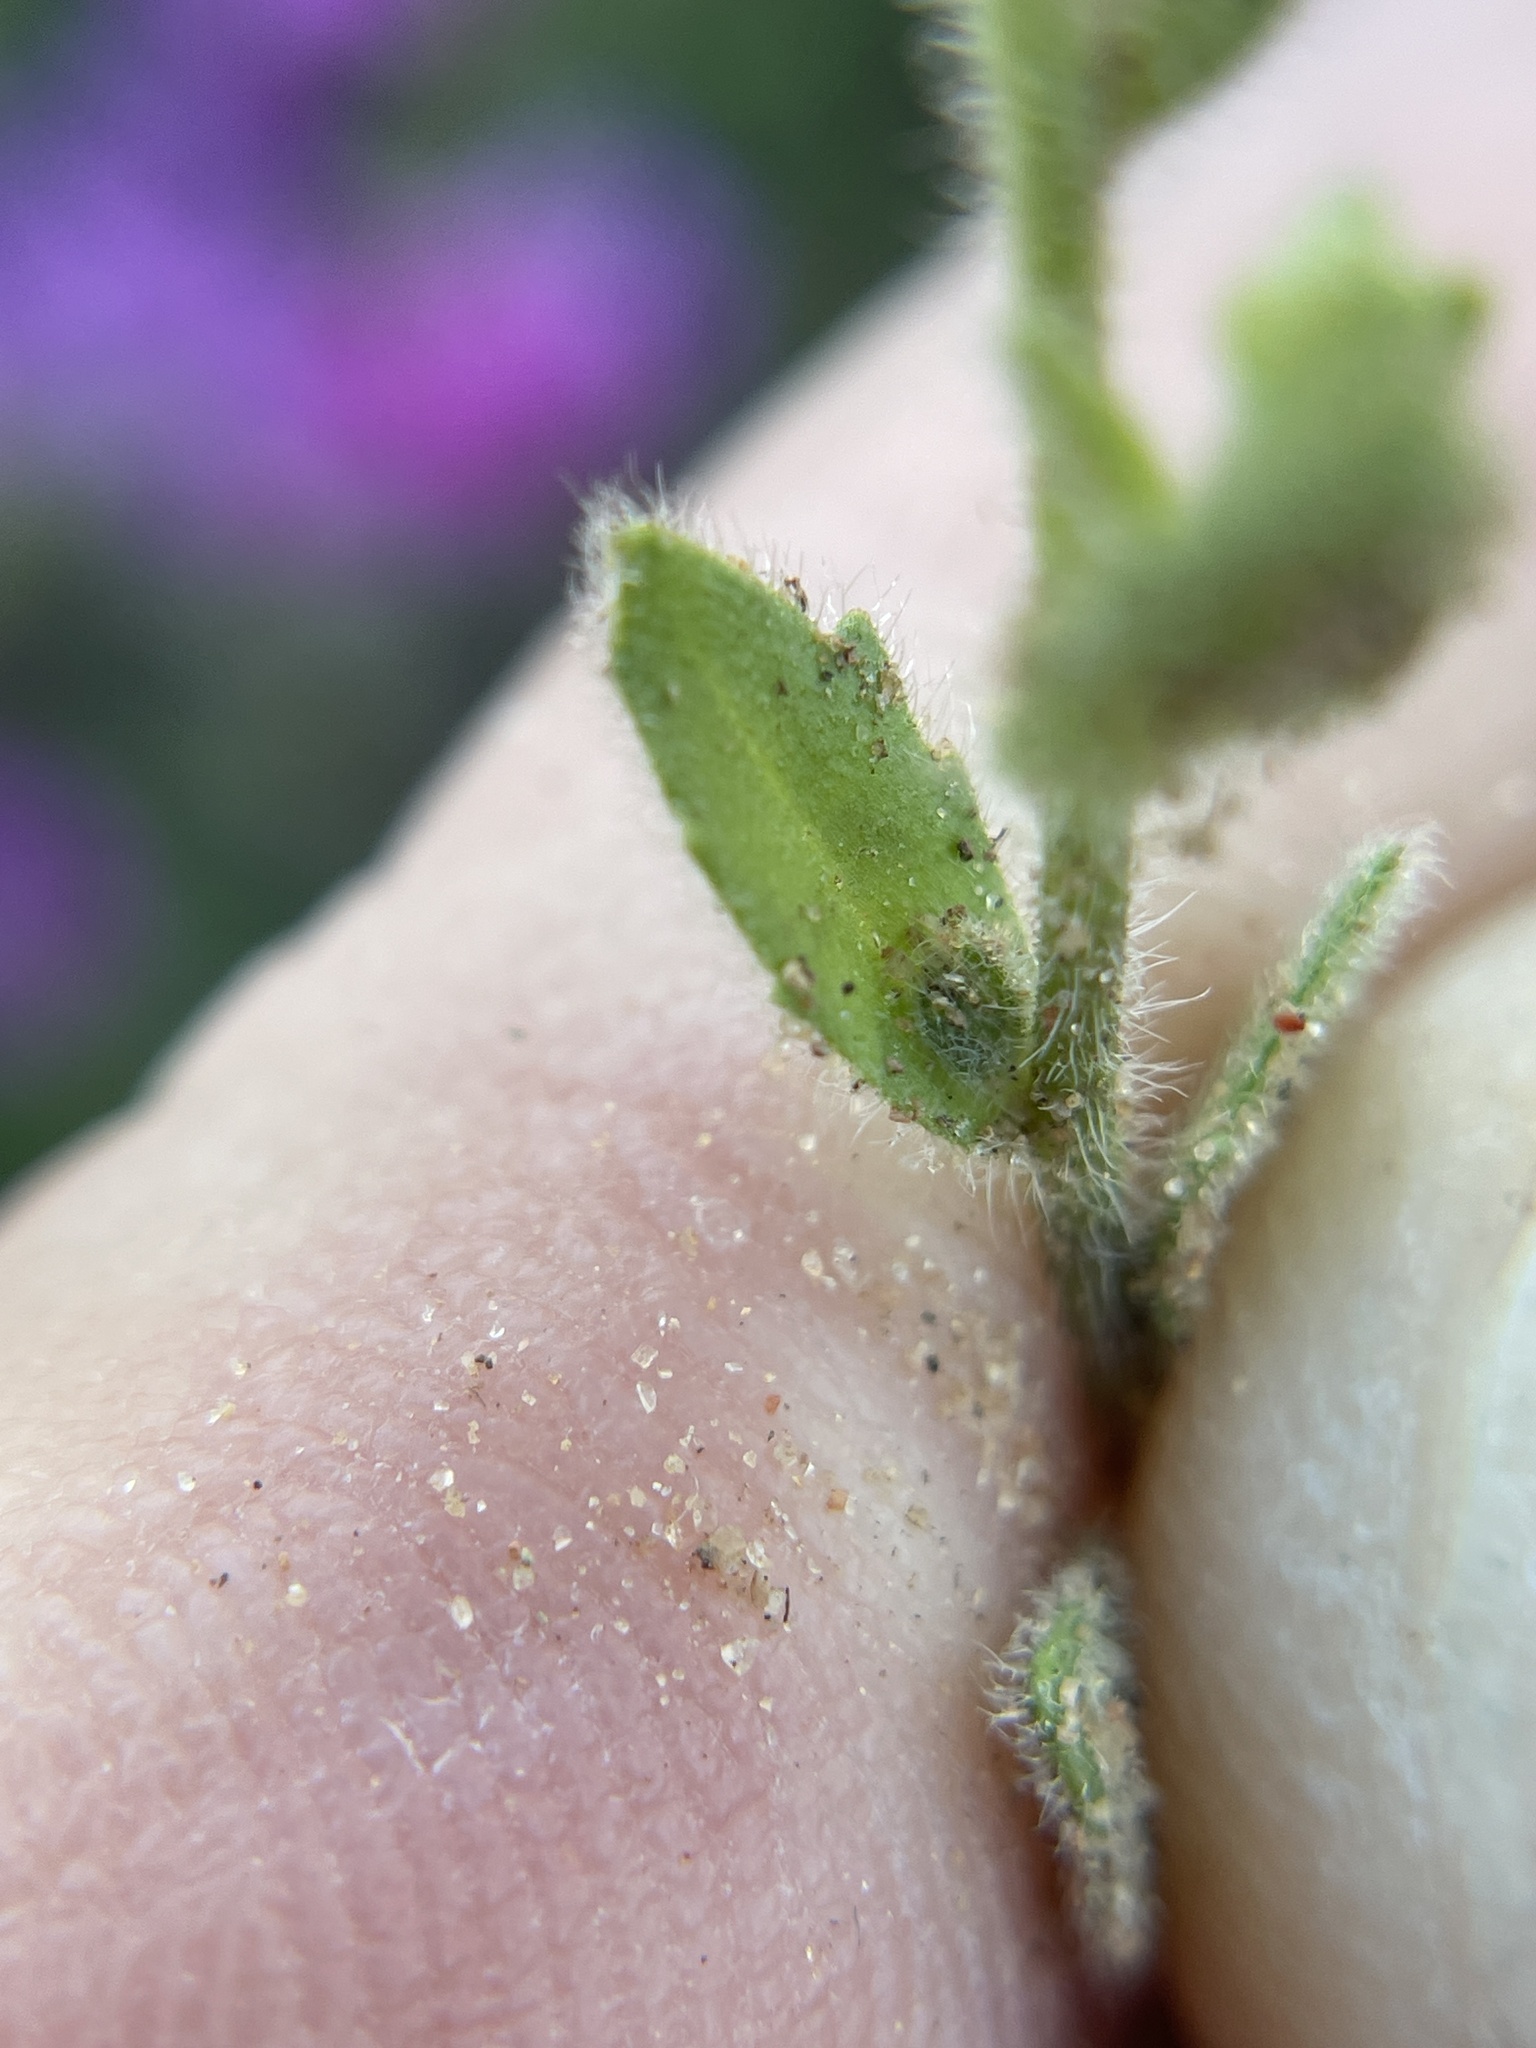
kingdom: Plantae
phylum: Tracheophyta
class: Magnoliopsida
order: Brassicales
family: Brassicaceae
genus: Tomostima
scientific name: Tomostima platycarpa
